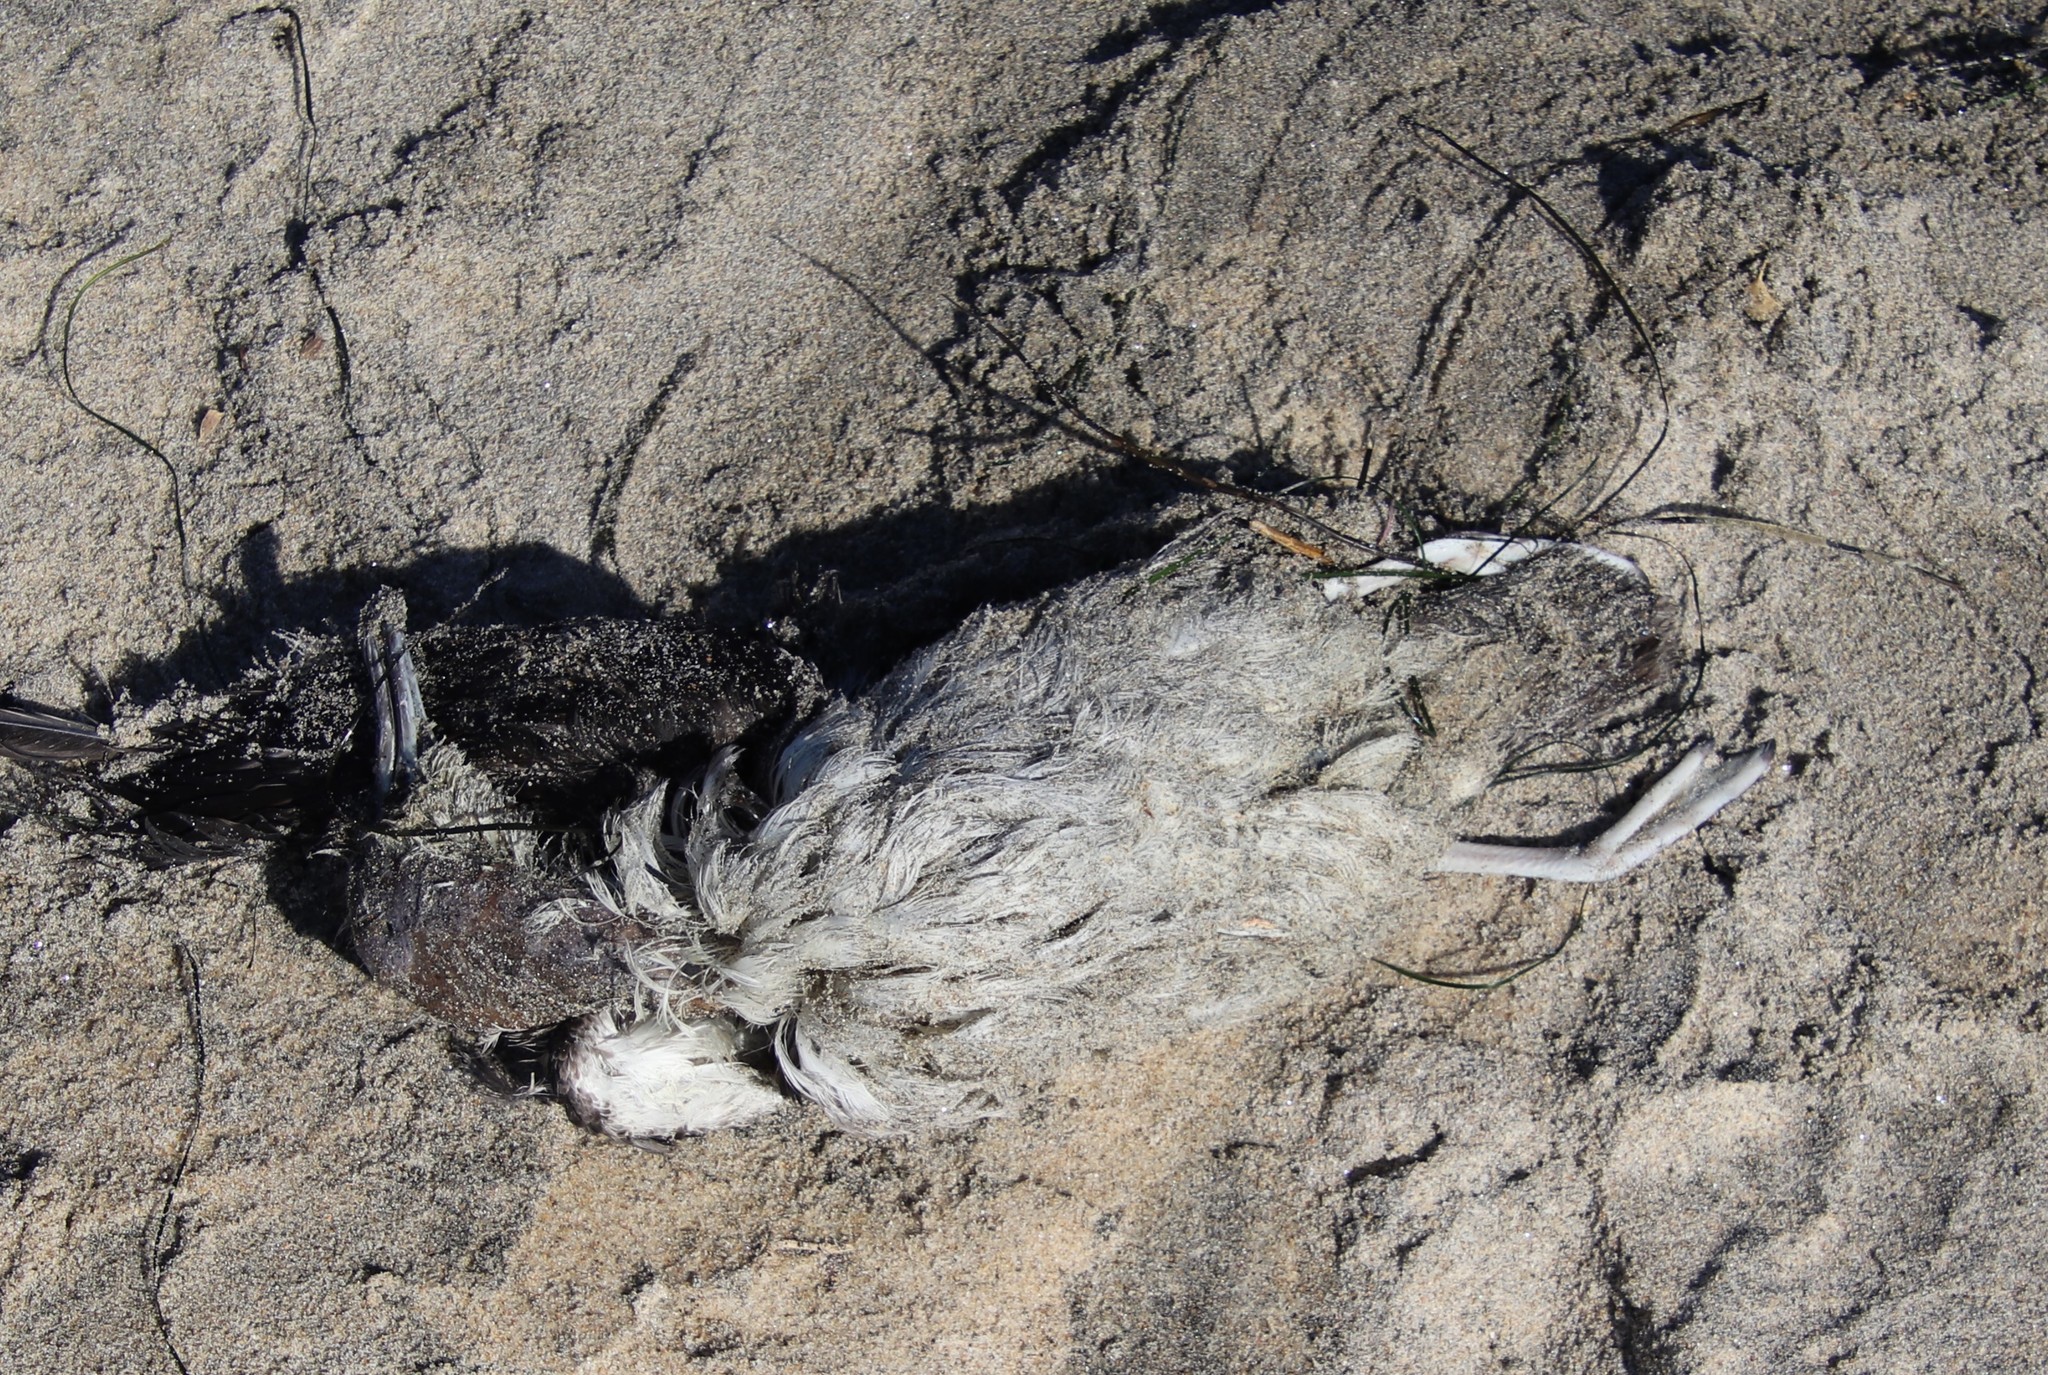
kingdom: Animalia
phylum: Chordata
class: Aves
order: Procellariiformes
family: Procellariidae
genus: Puffinus
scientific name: Puffinus opisthomelas
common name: Black-vented shearwater
